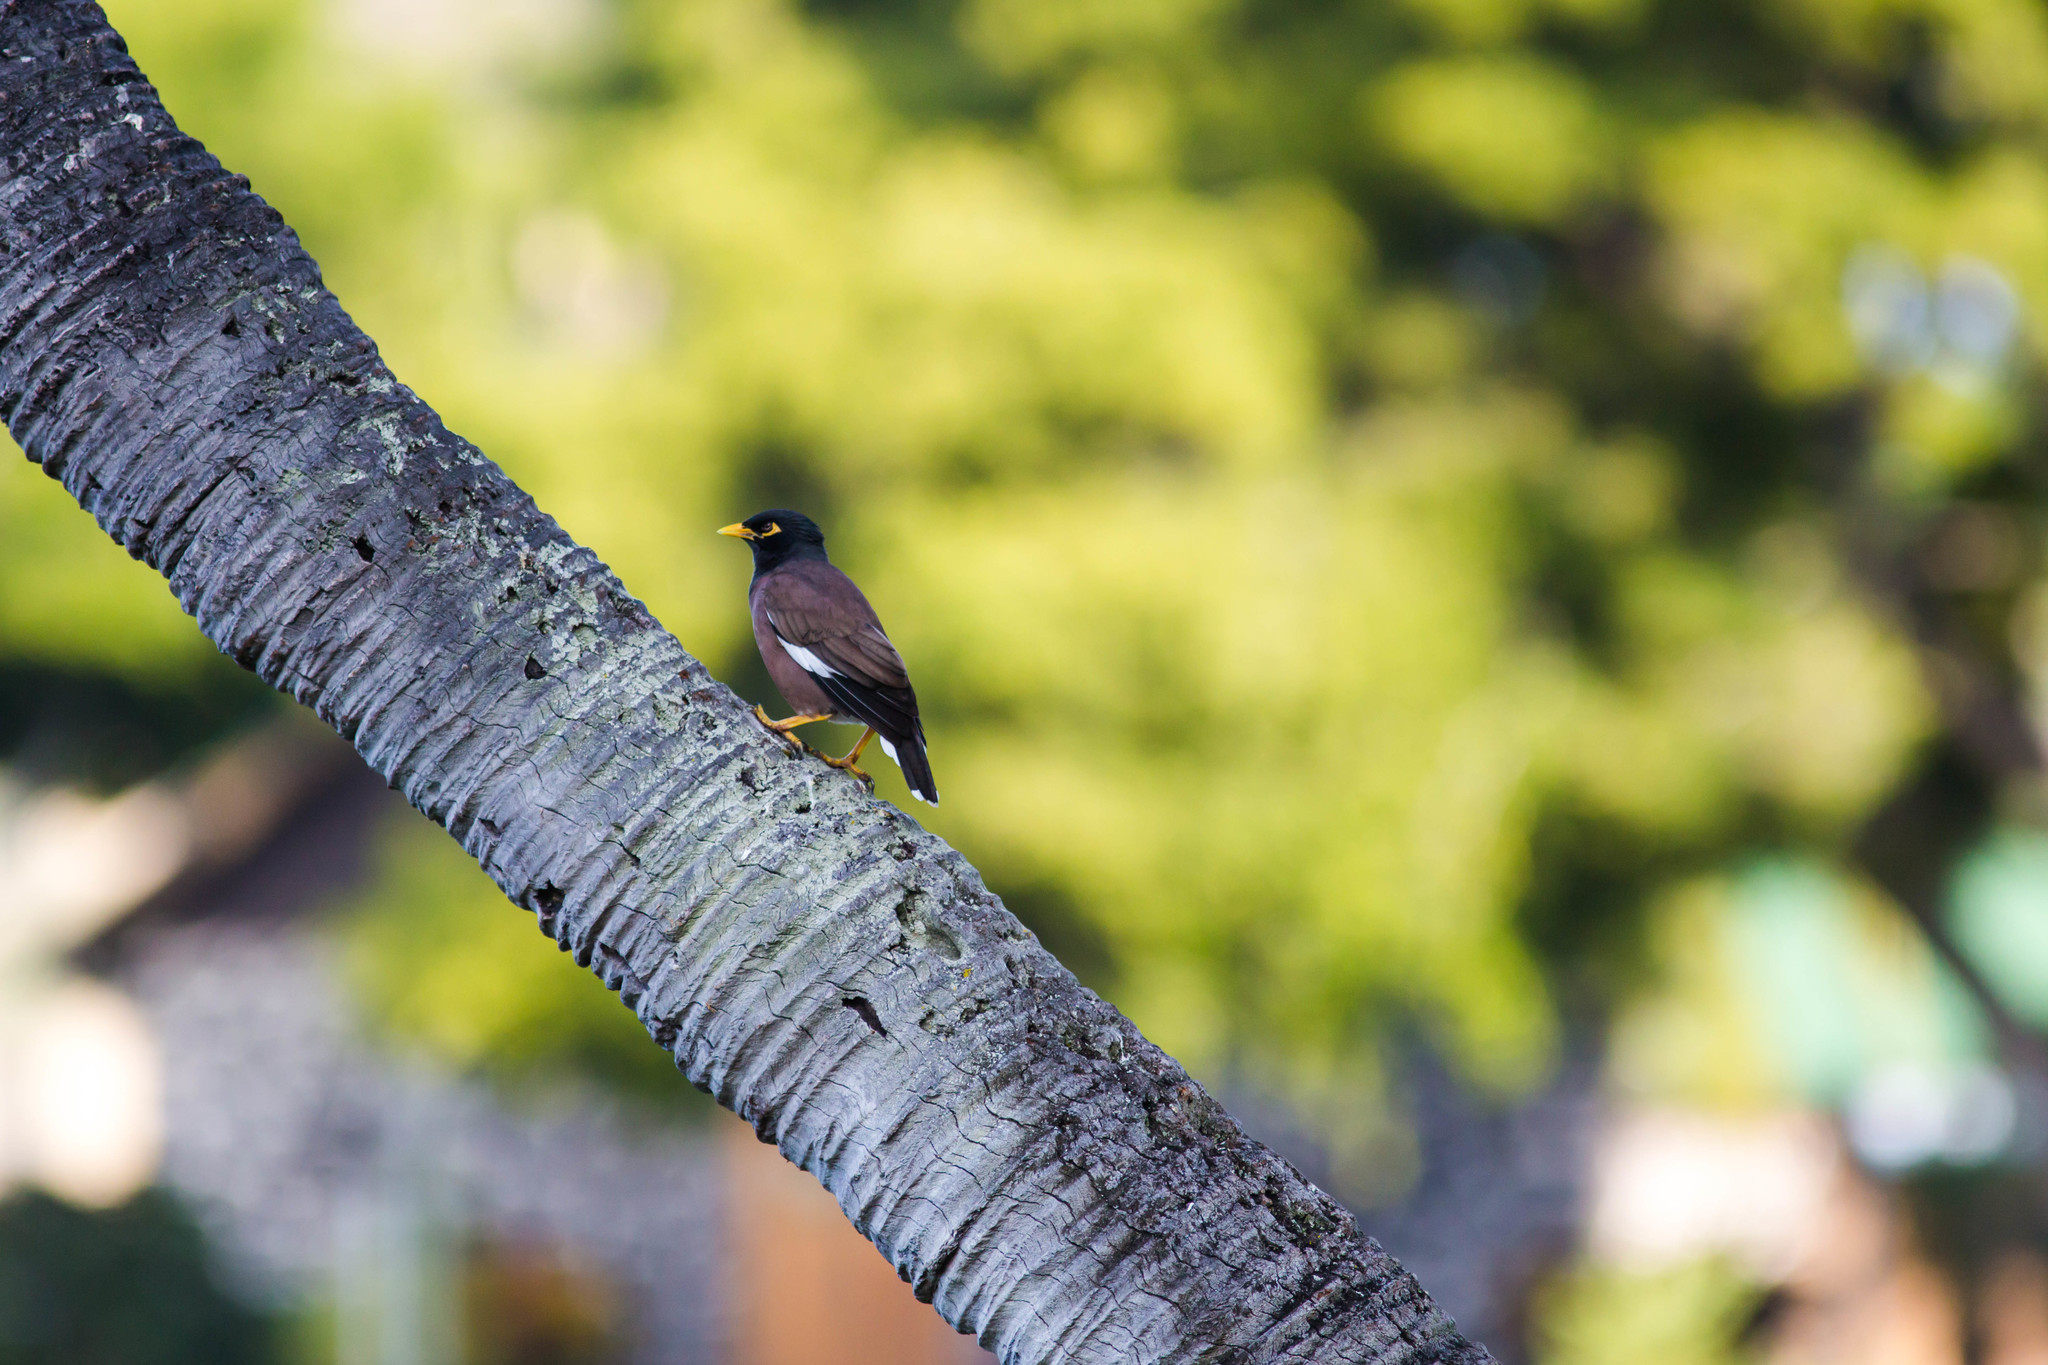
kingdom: Animalia
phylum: Chordata
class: Aves
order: Passeriformes
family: Sturnidae
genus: Acridotheres
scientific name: Acridotheres tristis
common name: Common myna
